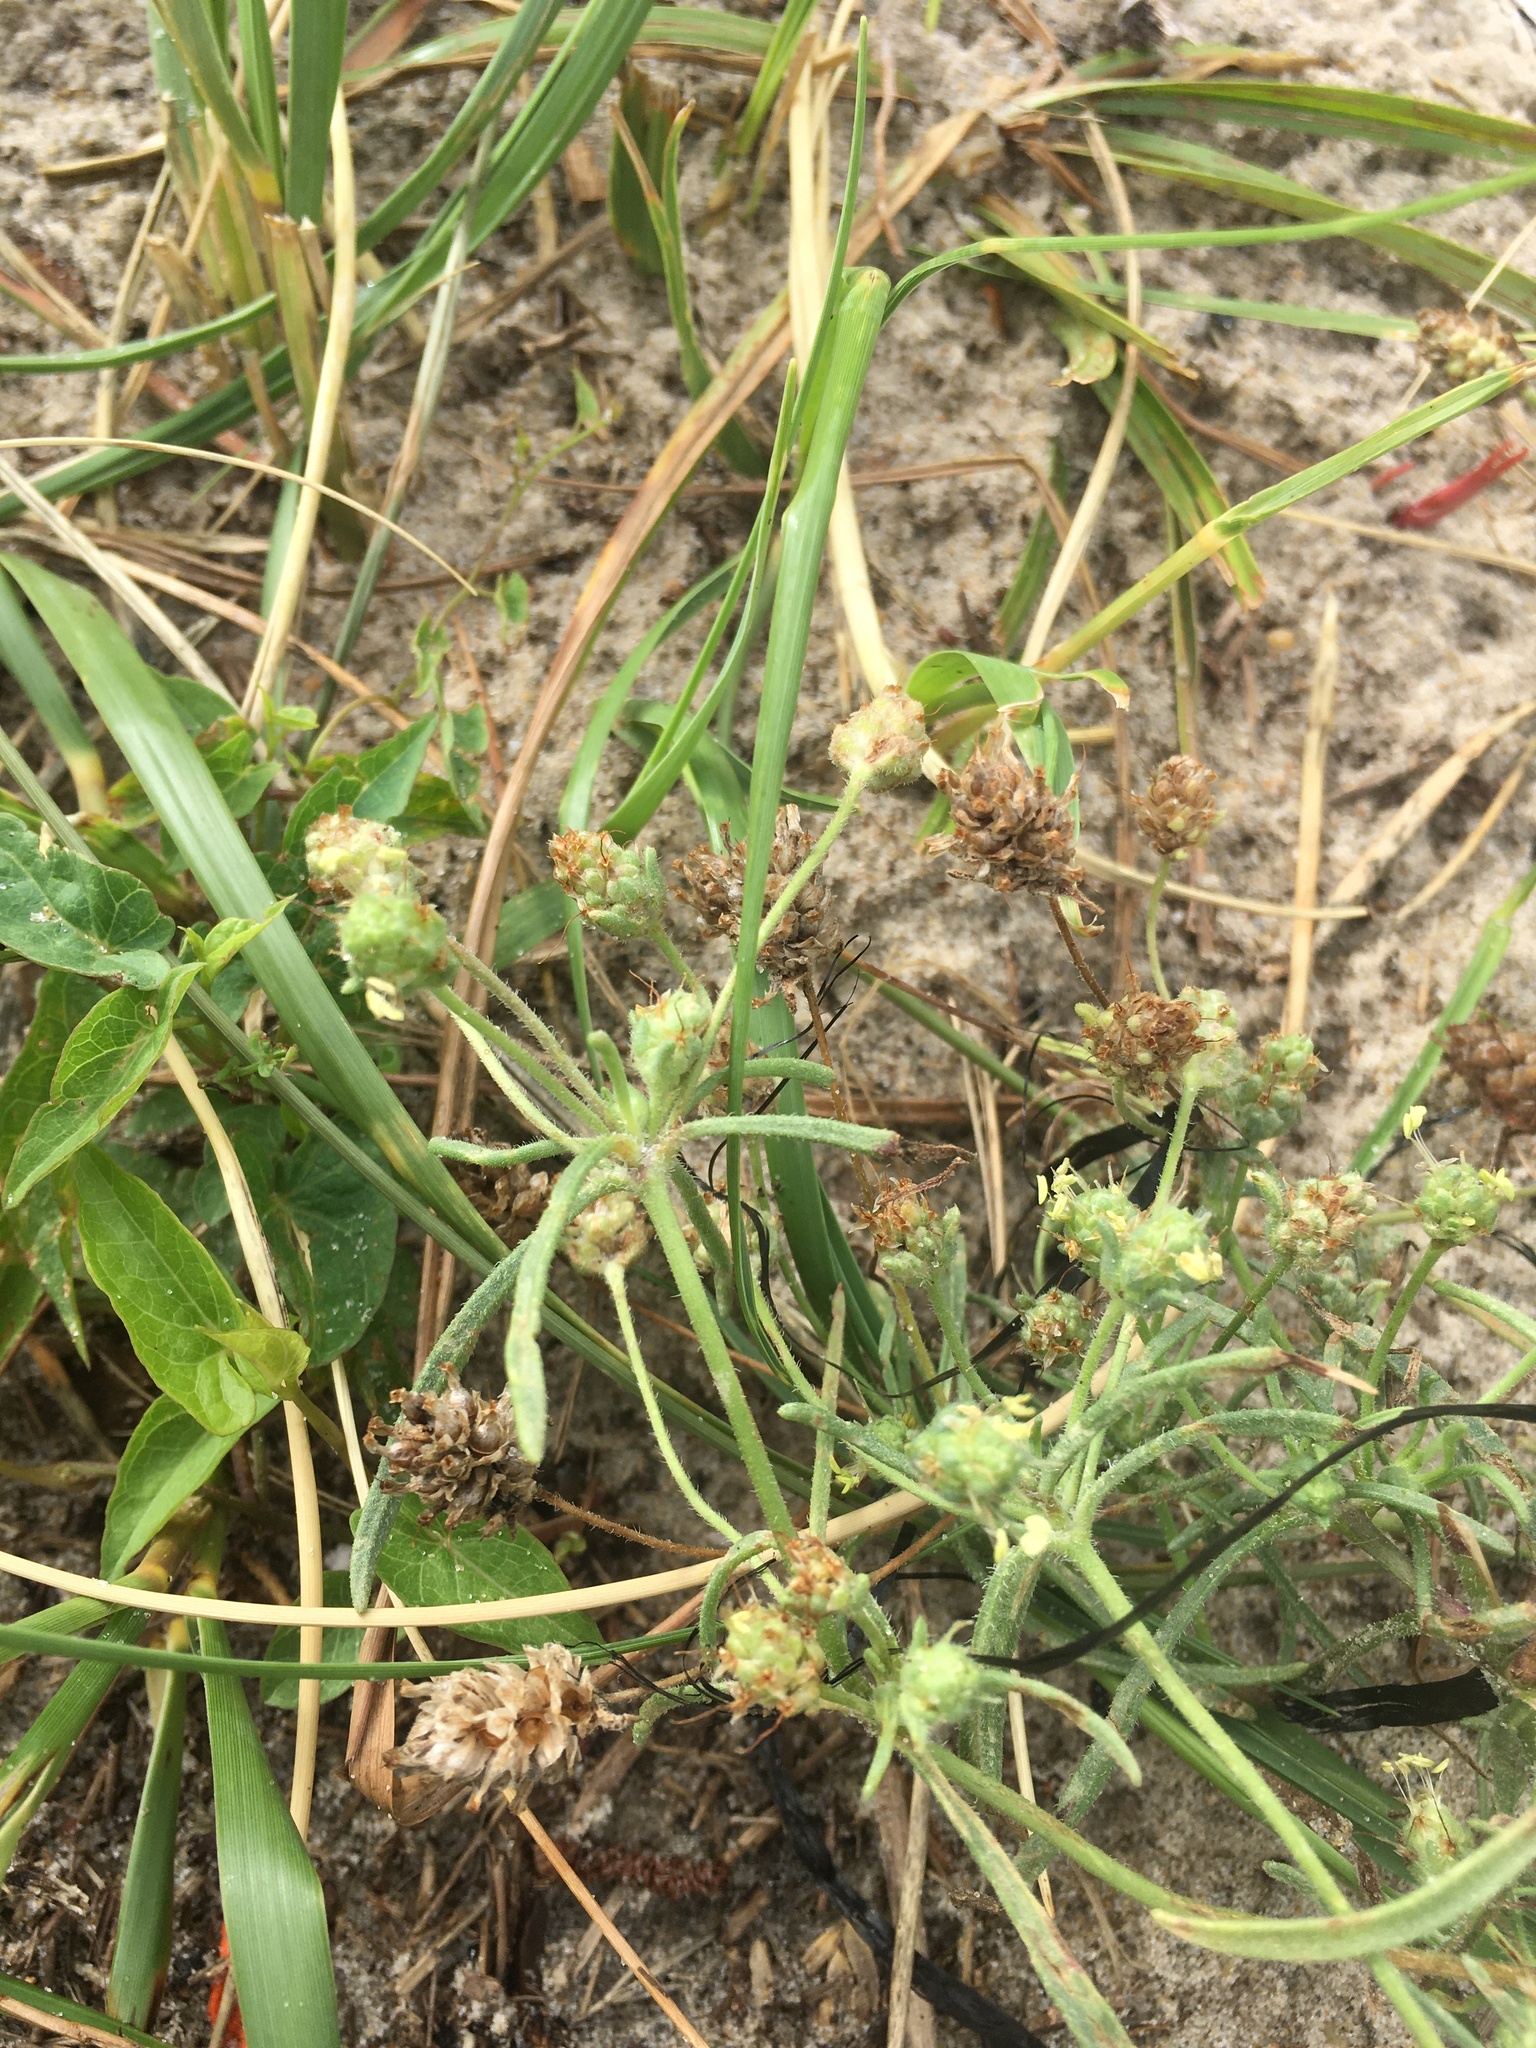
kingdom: Plantae
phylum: Tracheophyta
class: Magnoliopsida
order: Lamiales
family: Plantaginaceae
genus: Plantago
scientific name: Plantago arenaria
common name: Branched plantain
